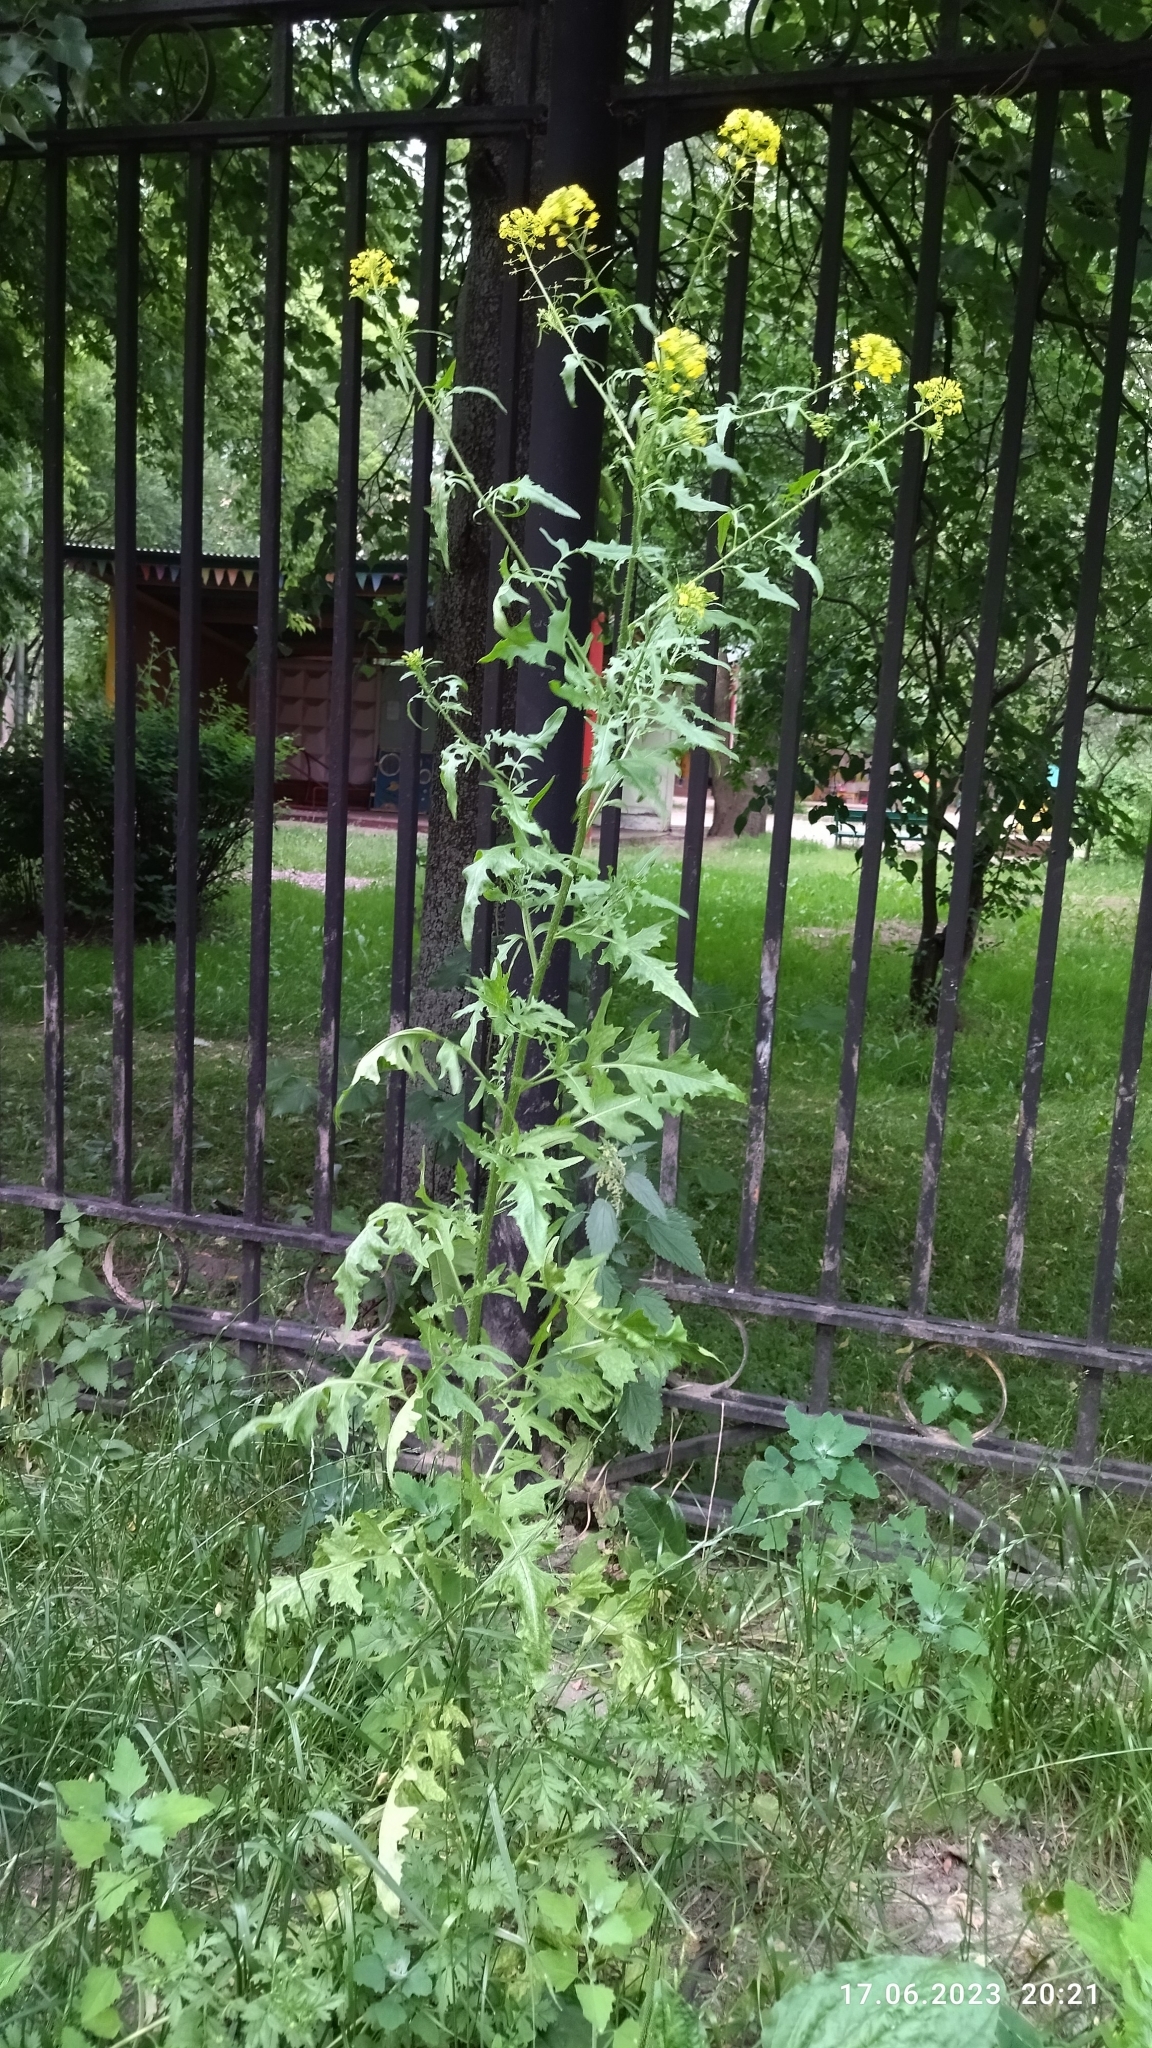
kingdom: Plantae
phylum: Tracheophyta
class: Magnoliopsida
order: Brassicales
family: Brassicaceae
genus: Sisymbrium
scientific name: Sisymbrium loeselii
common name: False london-rocket
